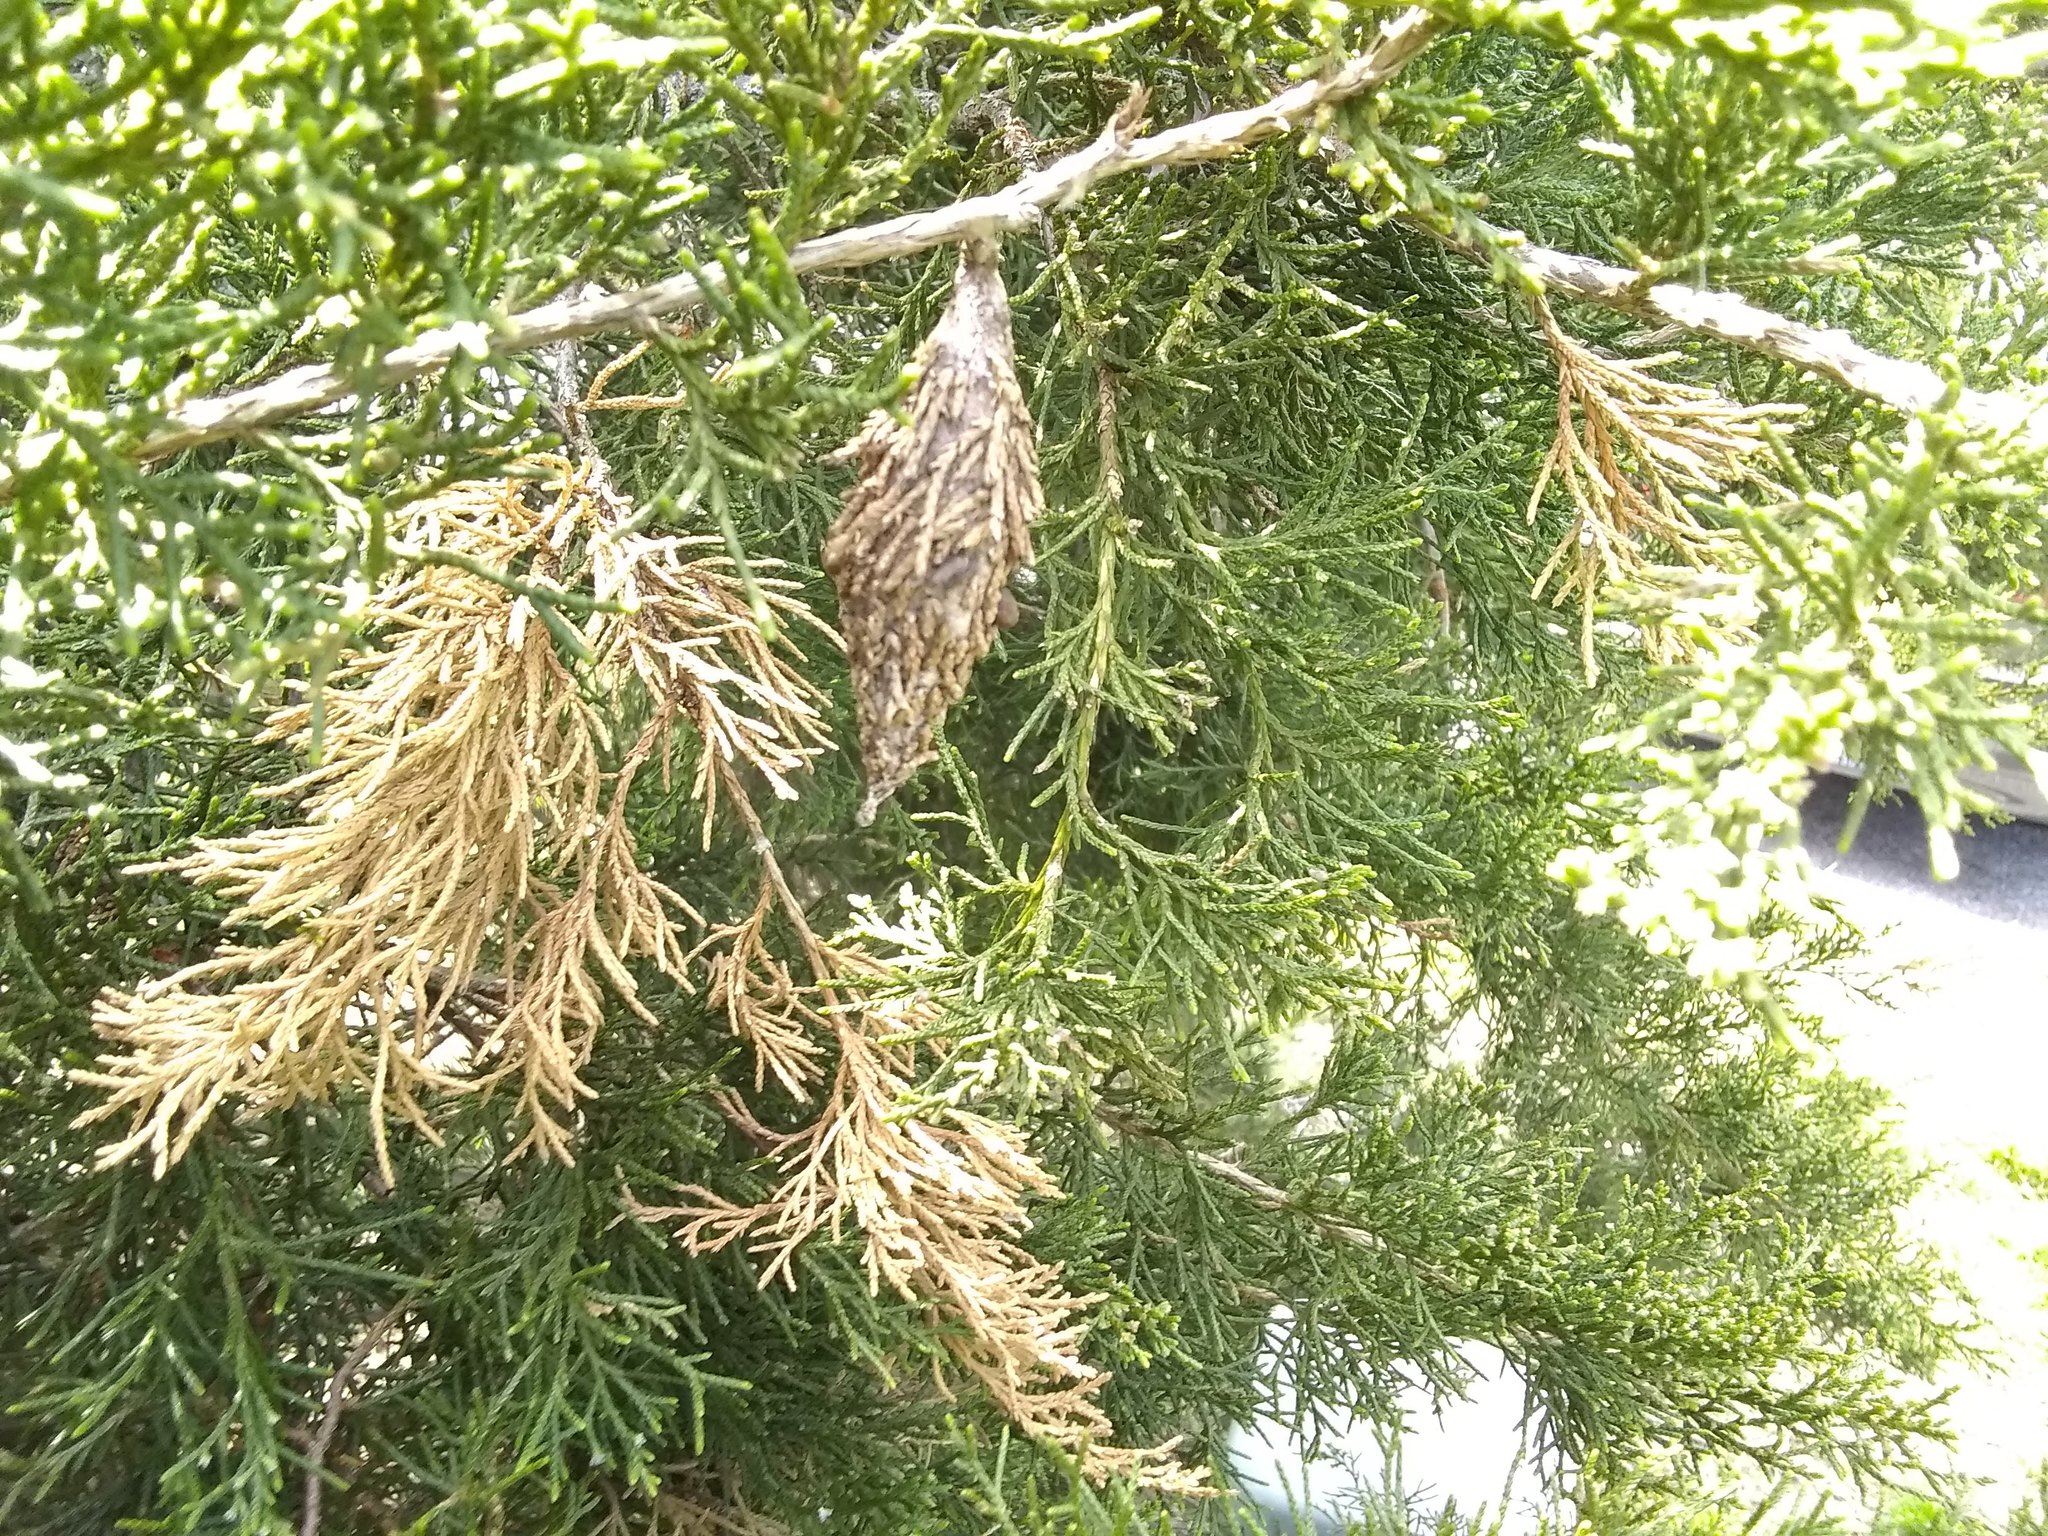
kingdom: Animalia
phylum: Arthropoda
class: Insecta
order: Lepidoptera
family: Psychidae
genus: Thyridopteryx
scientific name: Thyridopteryx ephemeraeformis
